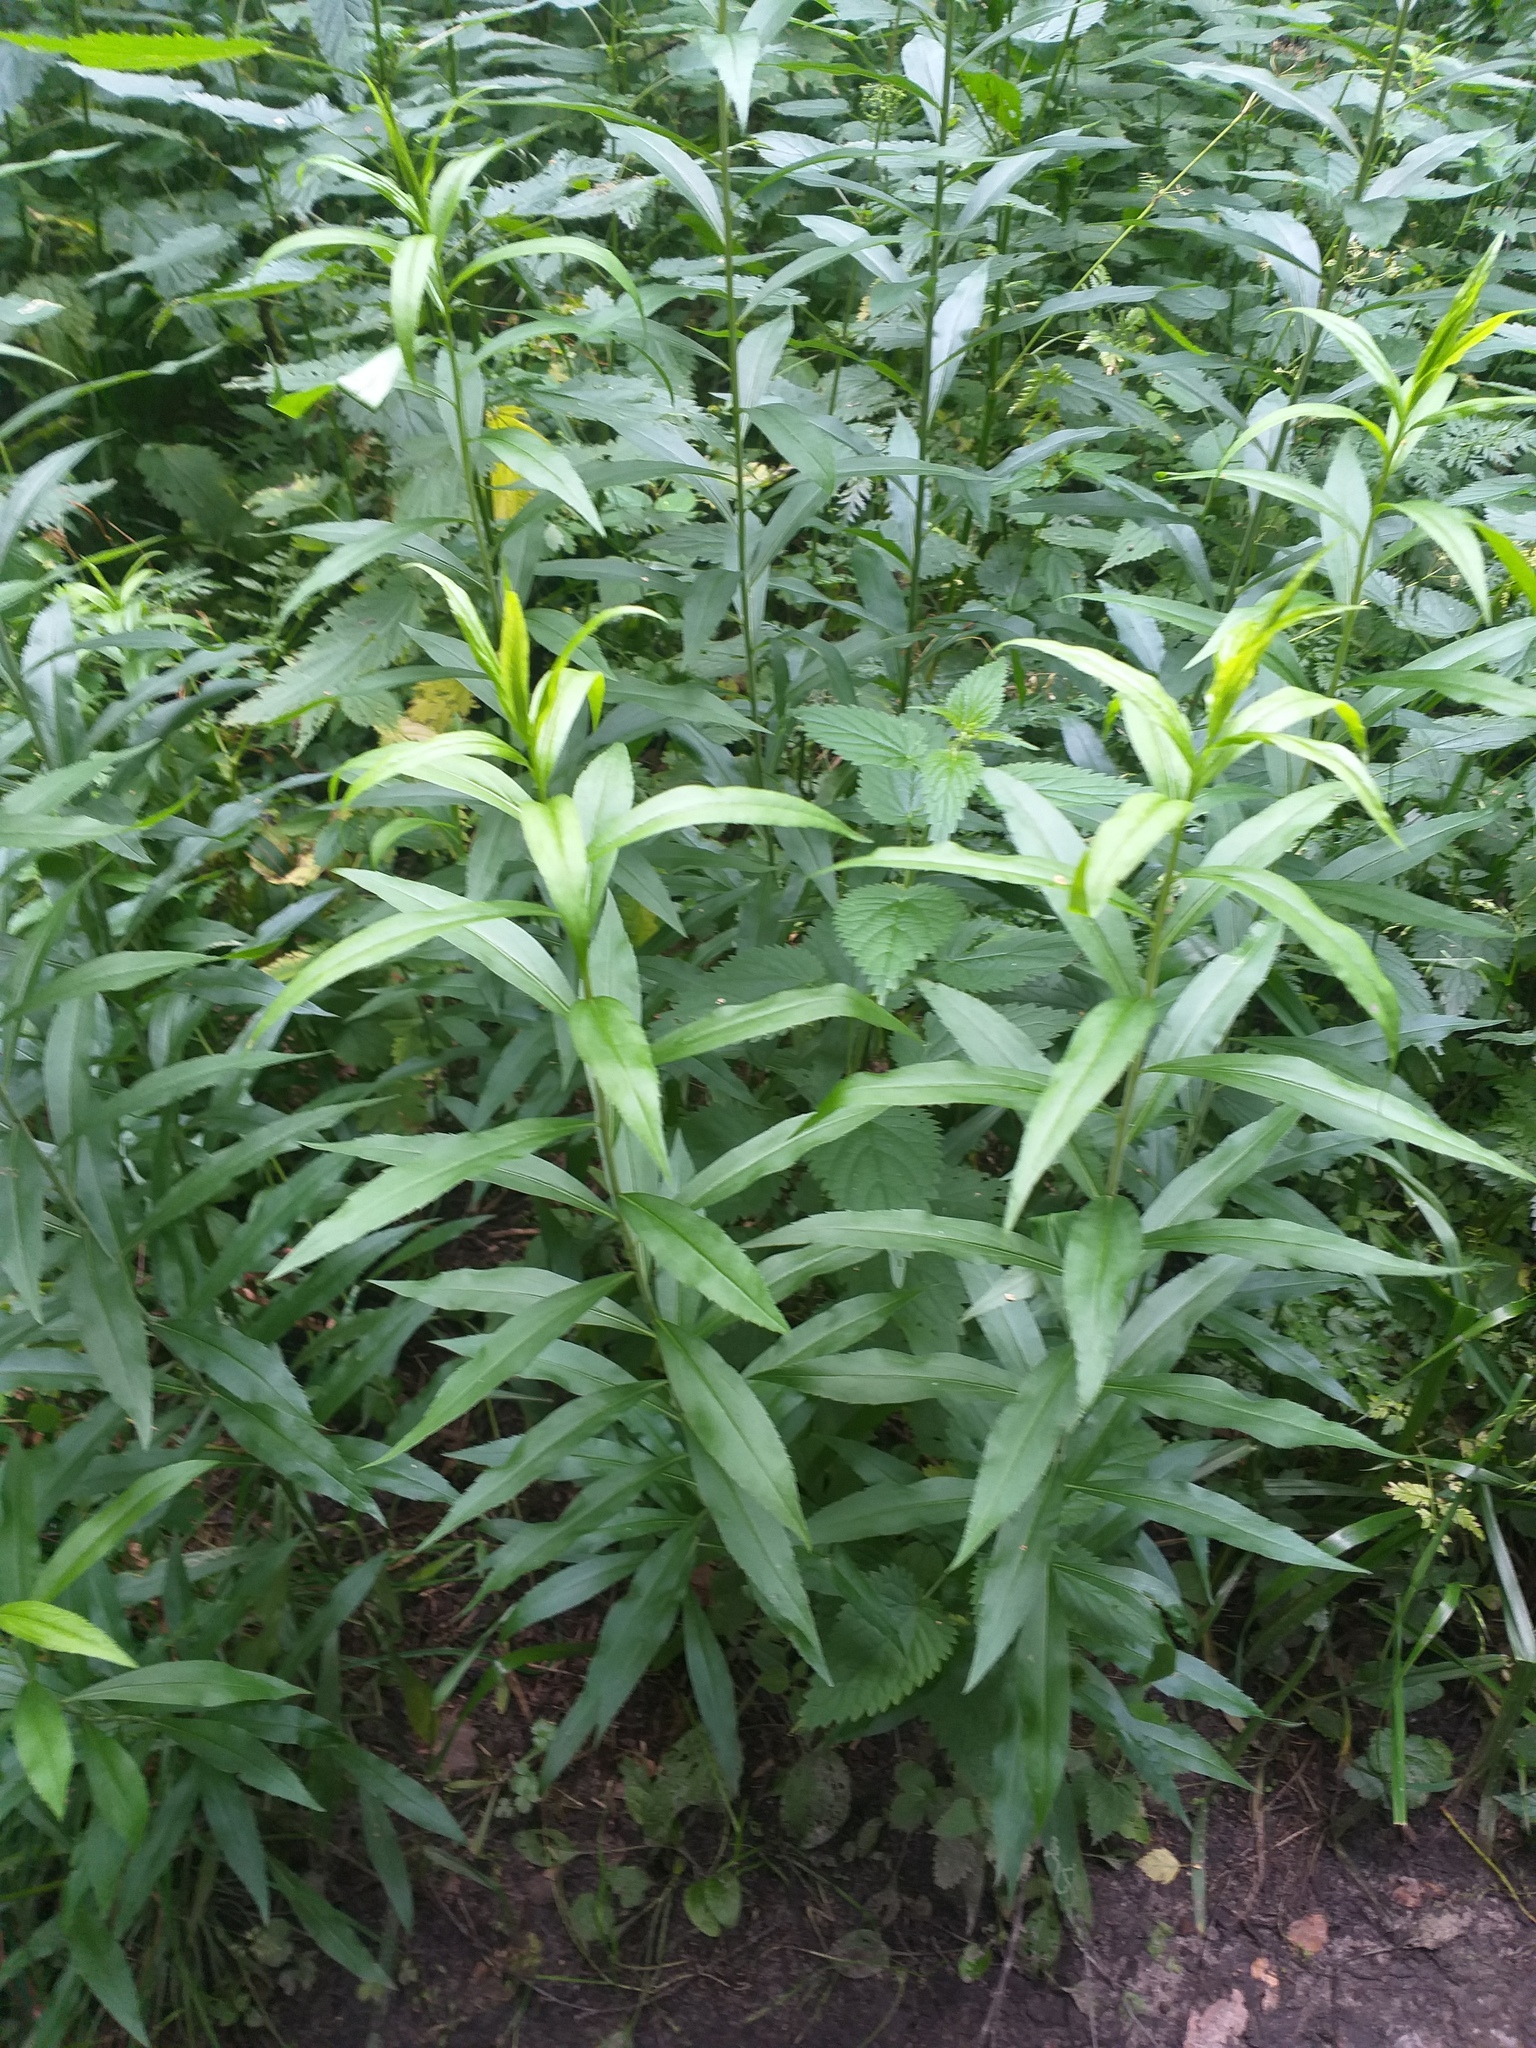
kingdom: Plantae
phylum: Tracheophyta
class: Magnoliopsida
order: Asterales
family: Asteraceae
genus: Solidago
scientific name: Solidago gigantea
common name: Giant goldenrod
